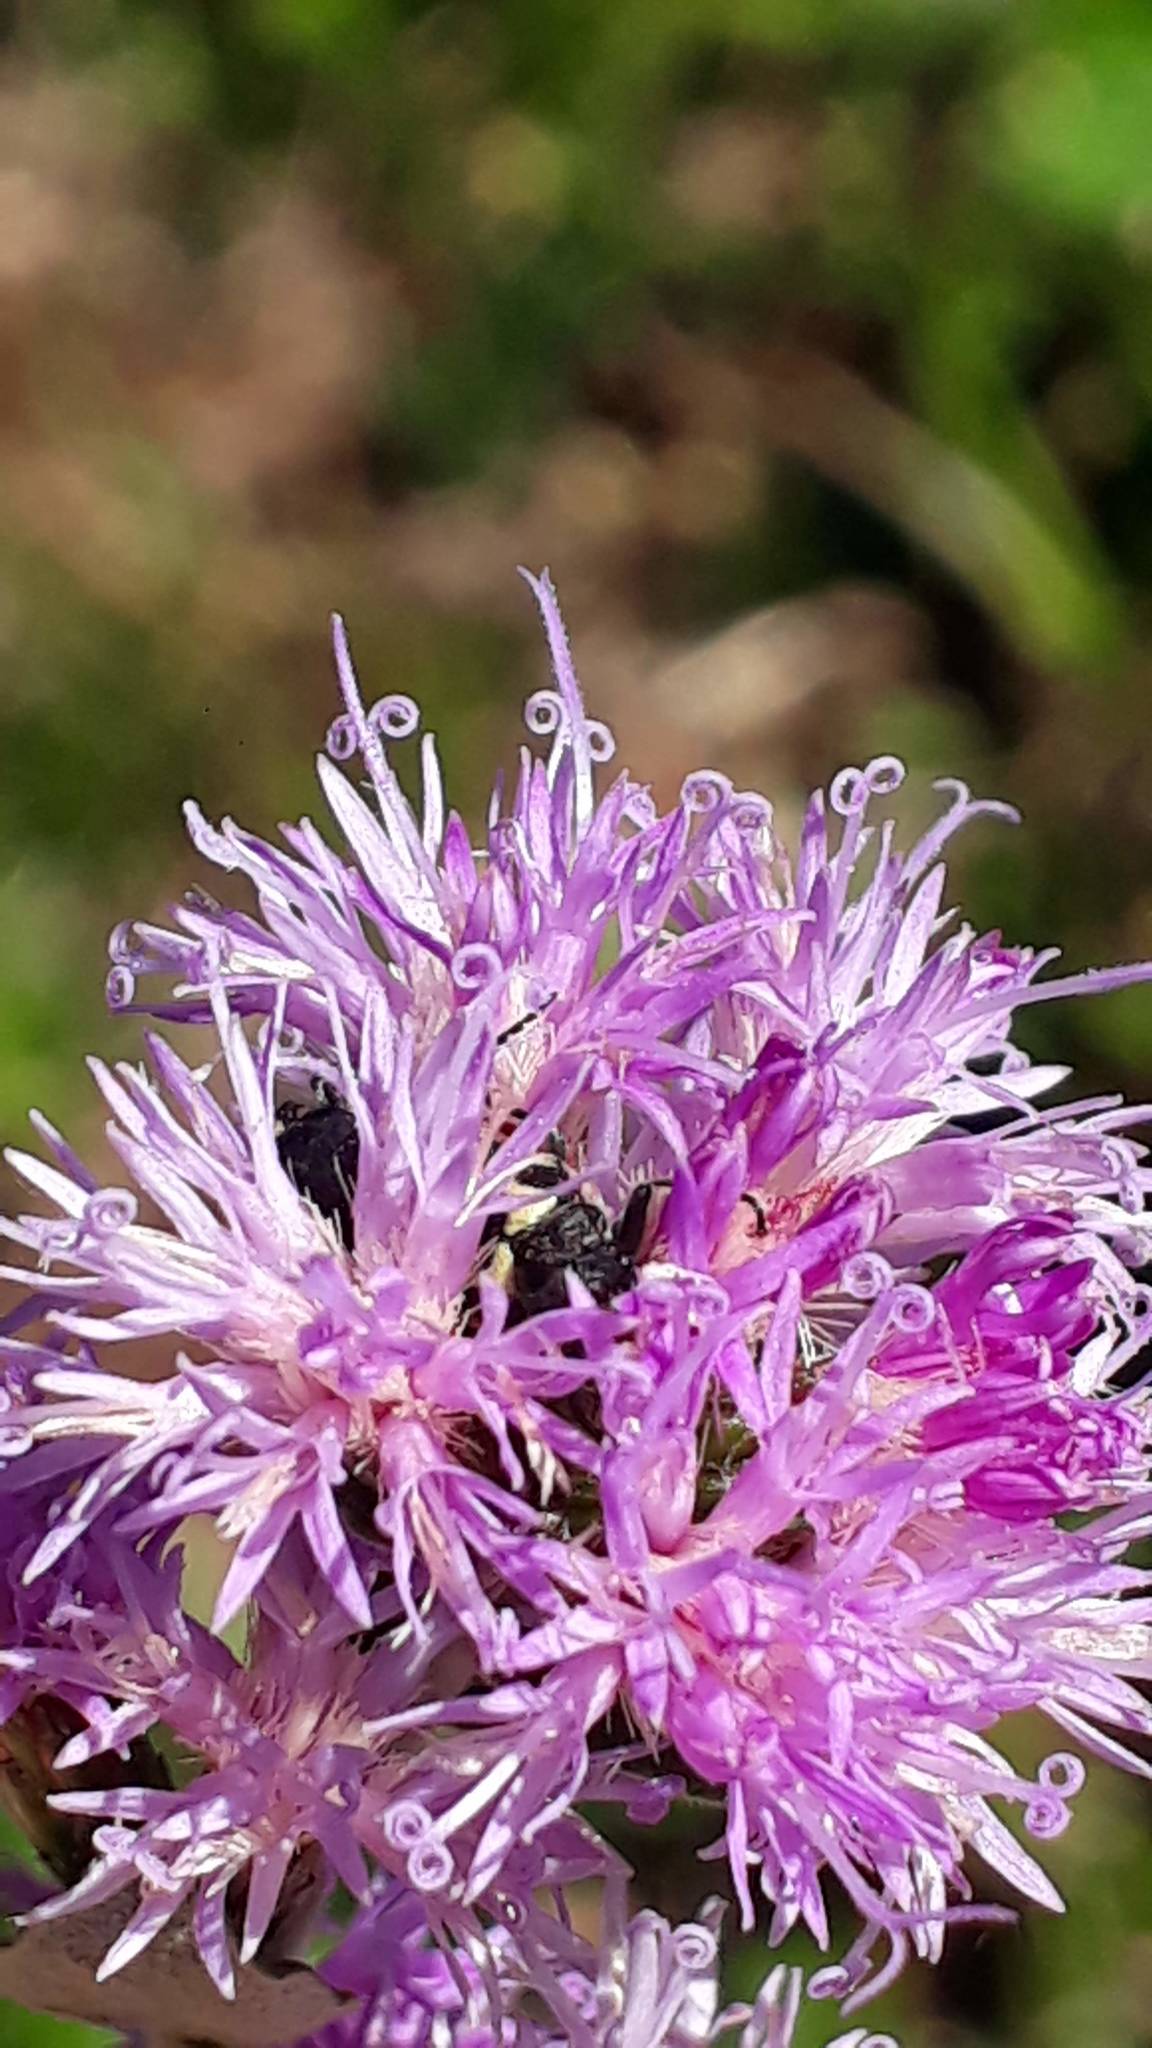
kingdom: Animalia
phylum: Arthropoda
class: Insecta
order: Coleoptera
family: Melyridae
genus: Astylus
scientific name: Astylus
